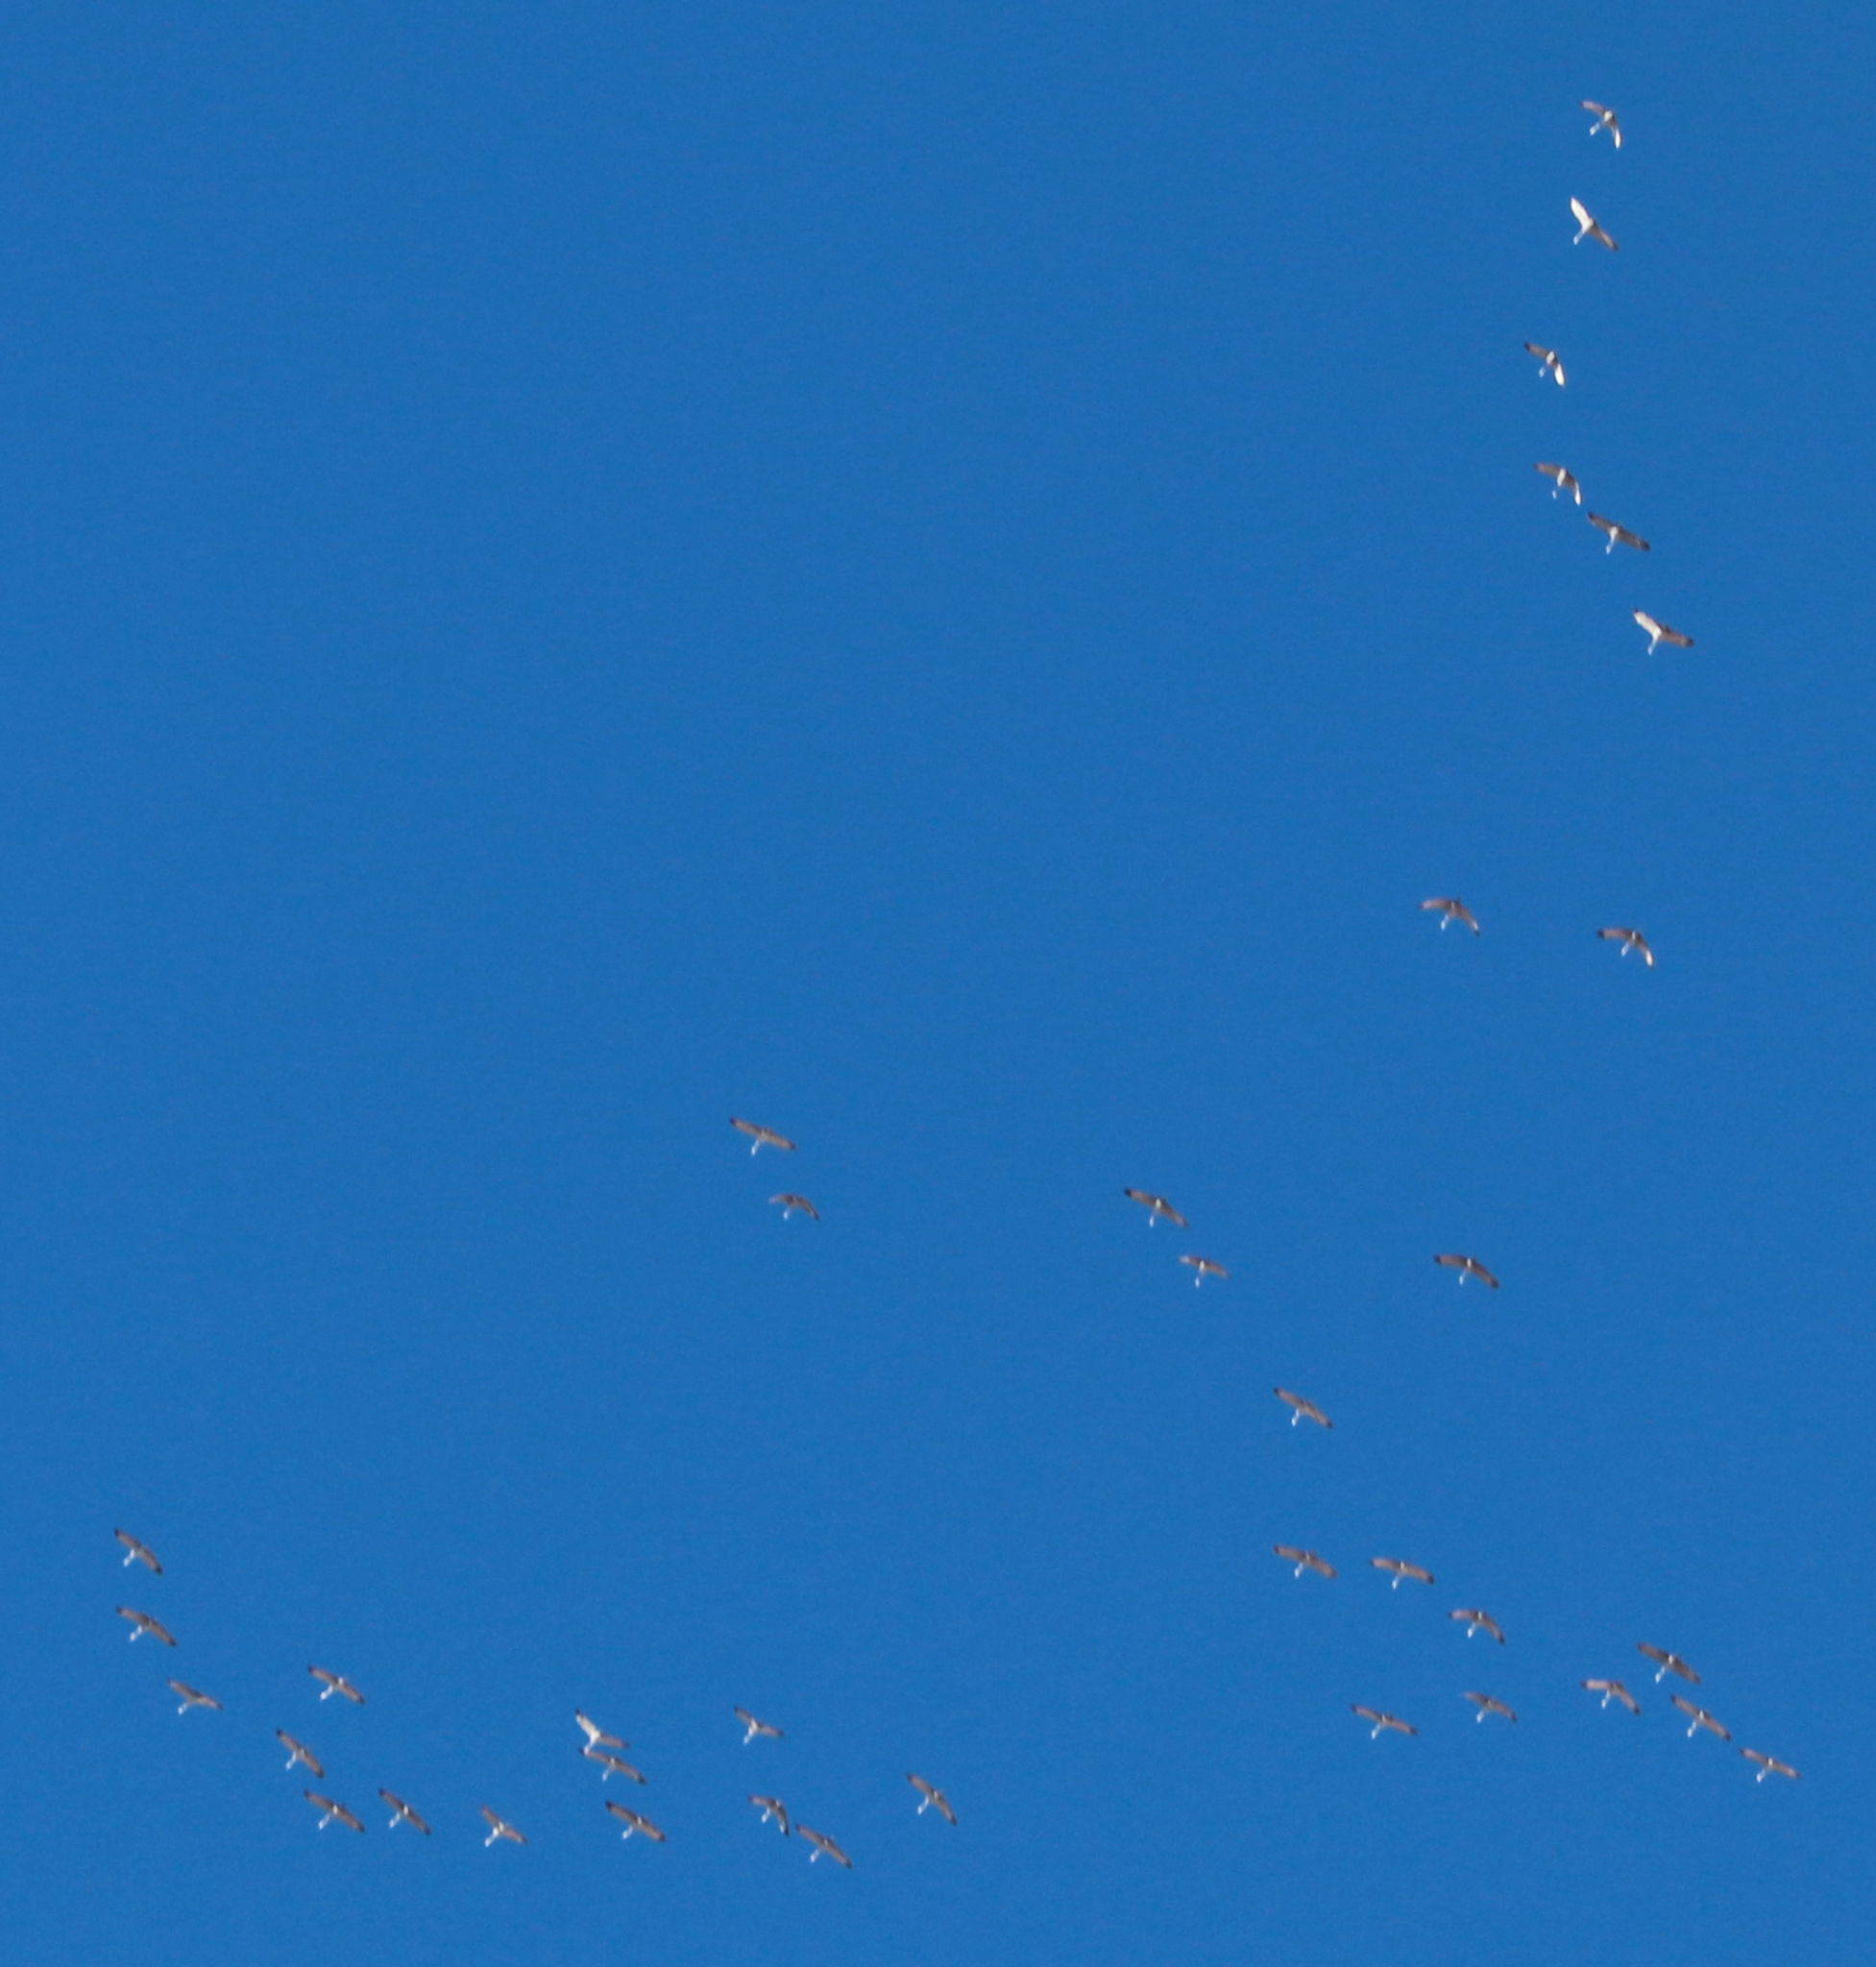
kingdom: Animalia
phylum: Chordata
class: Aves
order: Gruiformes
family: Gruidae
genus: Grus
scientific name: Grus canadensis
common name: Sandhill crane
